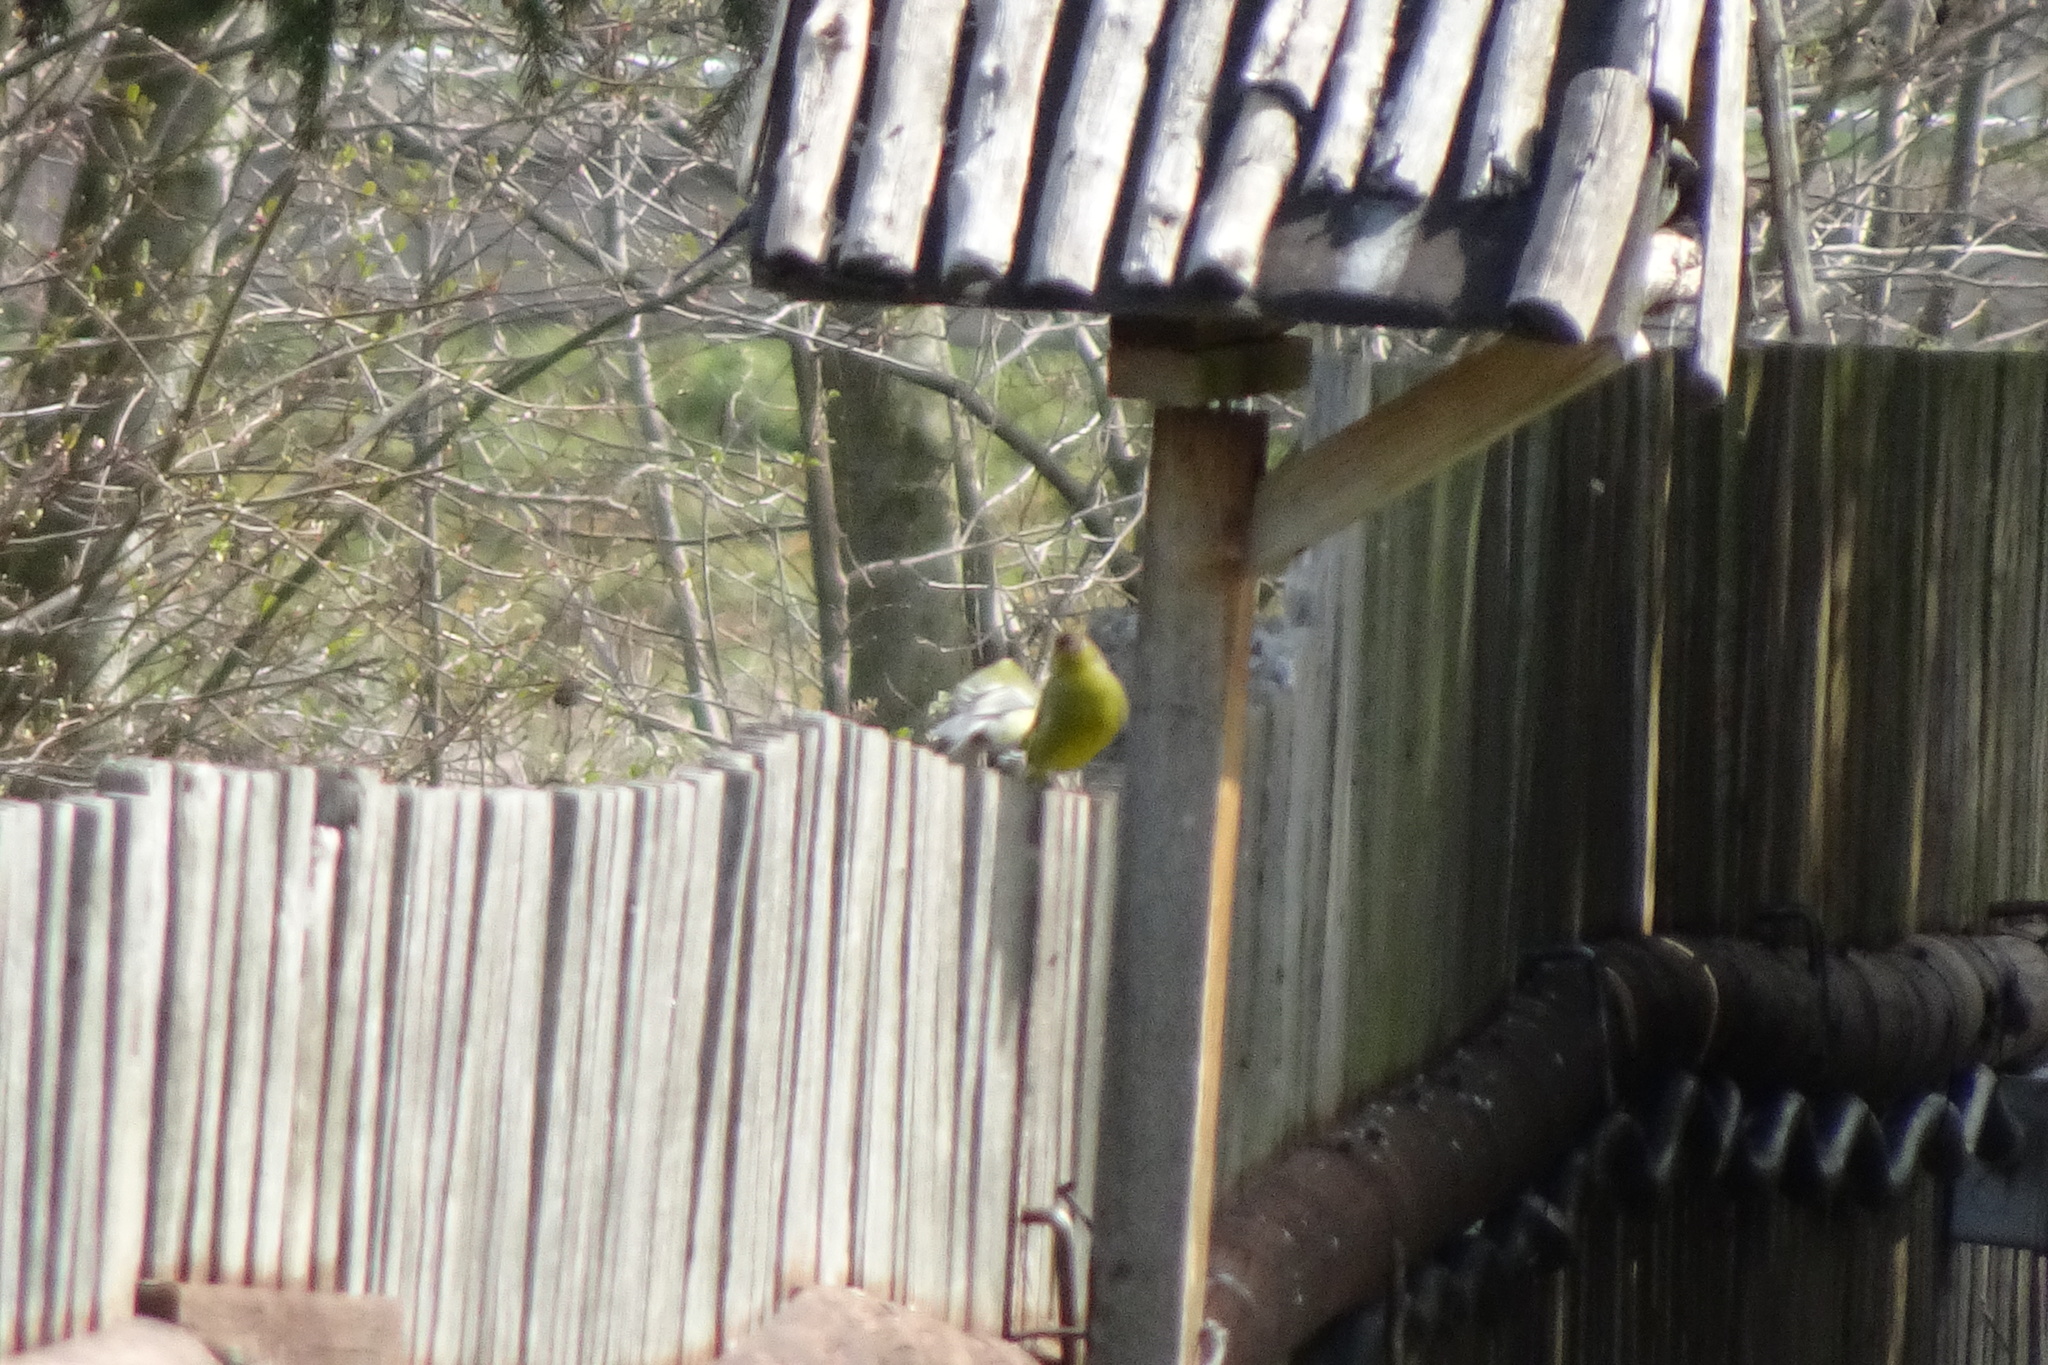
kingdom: Plantae
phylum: Tracheophyta
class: Liliopsida
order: Poales
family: Poaceae
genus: Chloris
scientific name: Chloris chloris
